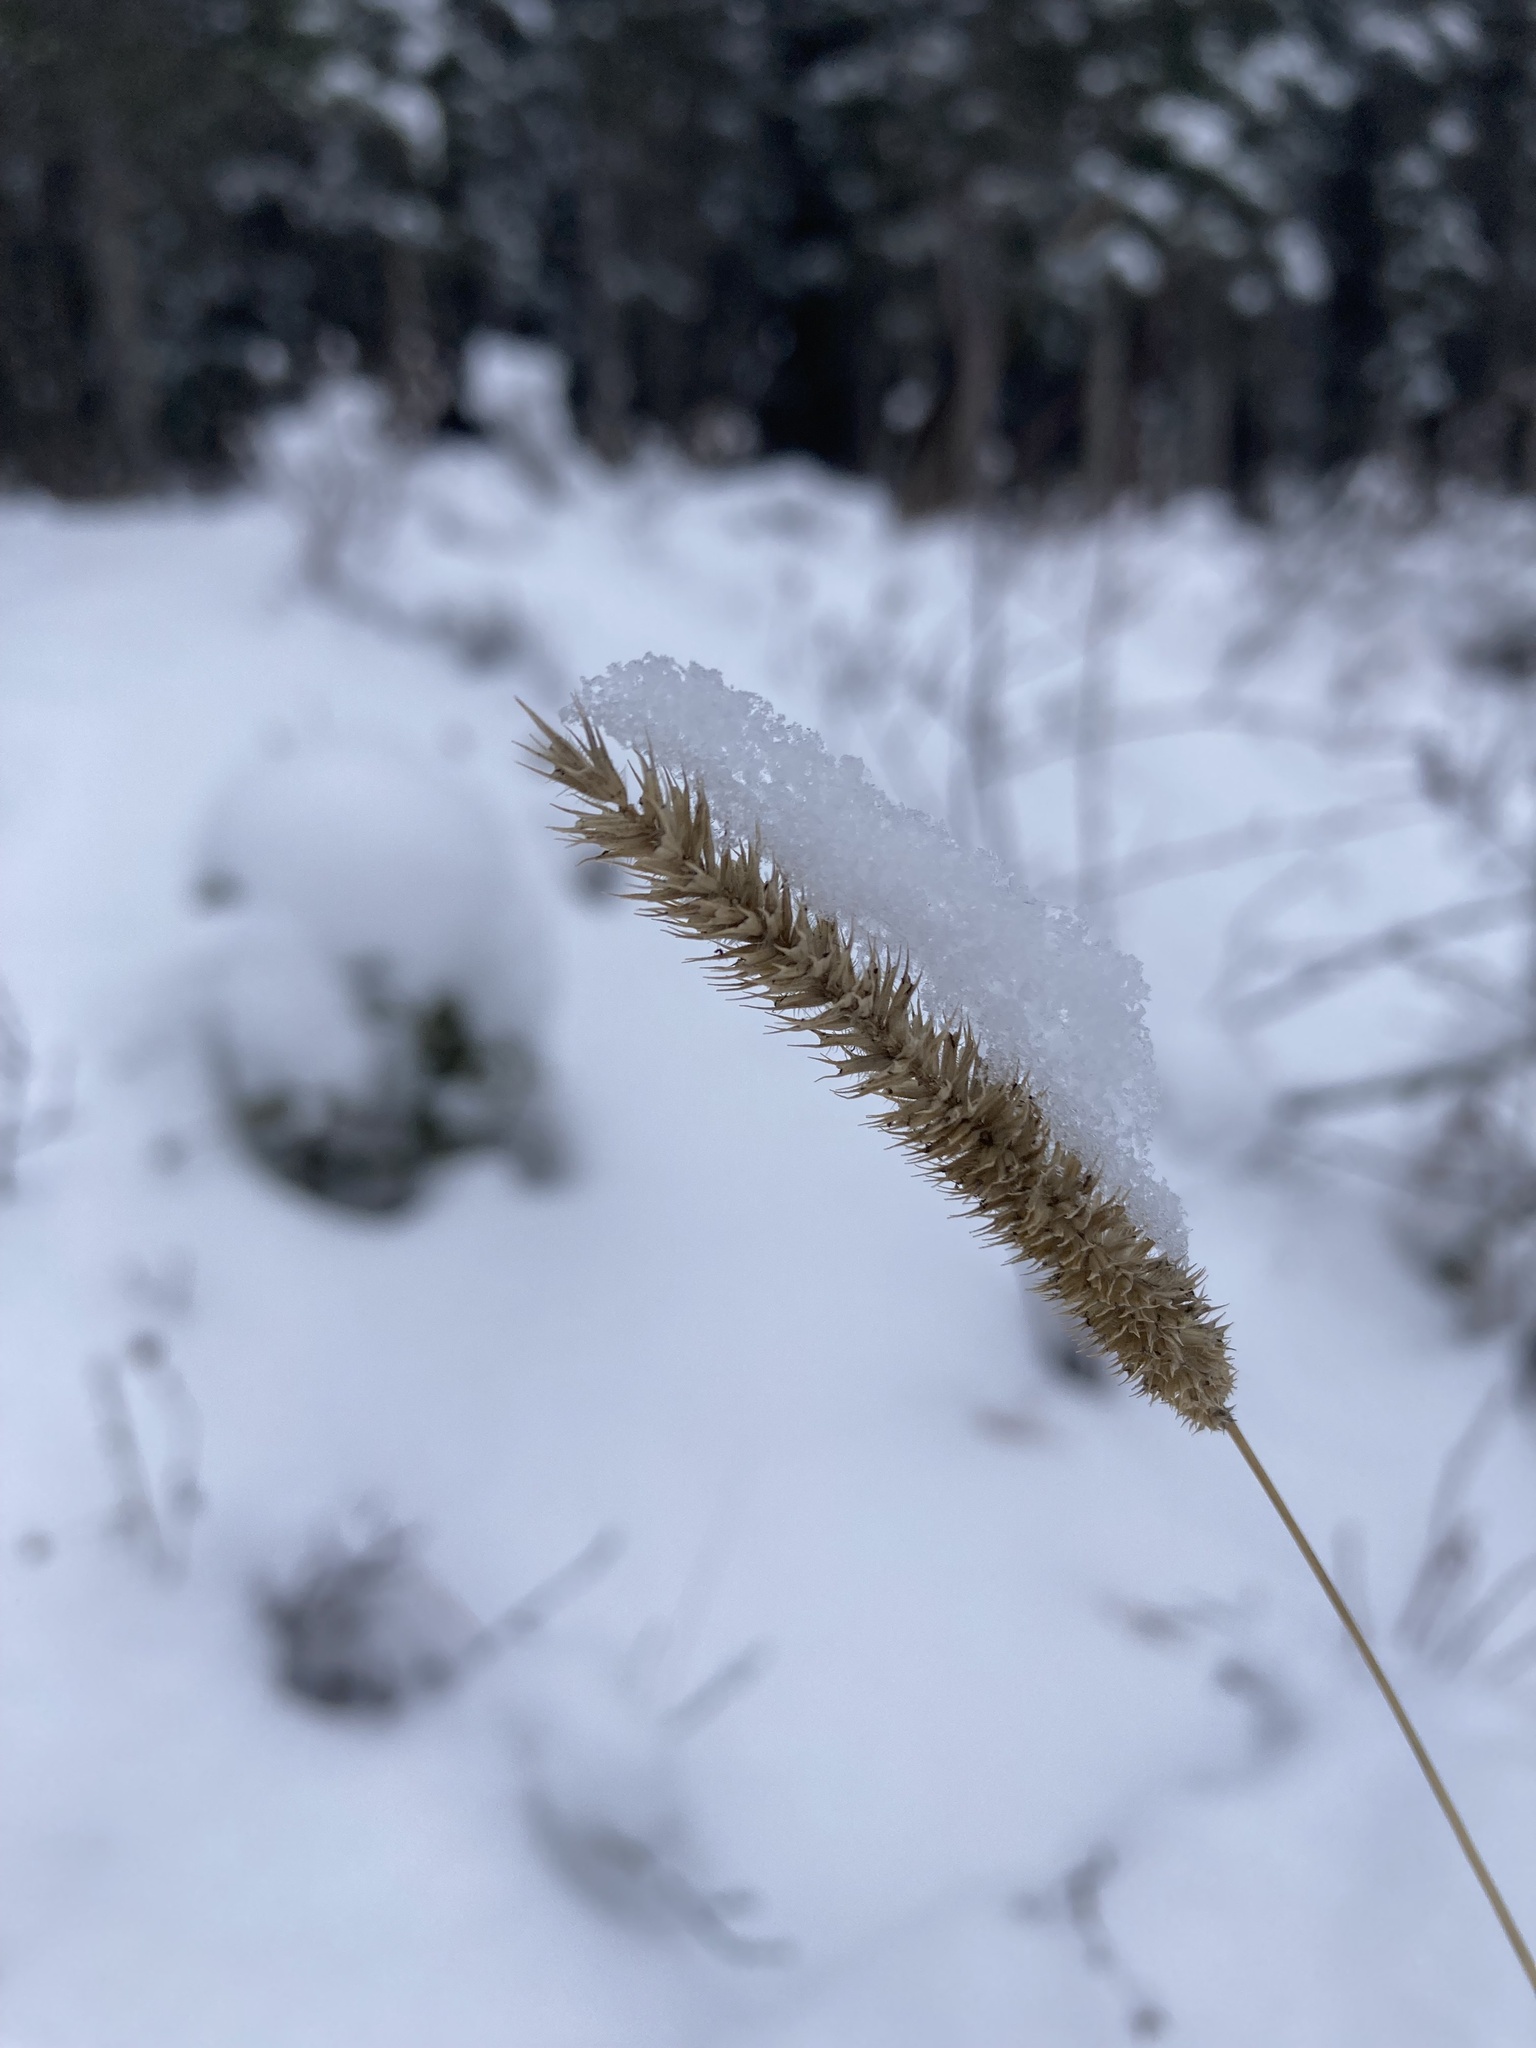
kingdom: Plantae
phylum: Tracheophyta
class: Liliopsida
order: Poales
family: Poaceae
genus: Phleum
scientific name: Phleum pratense
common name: Timothy grass
